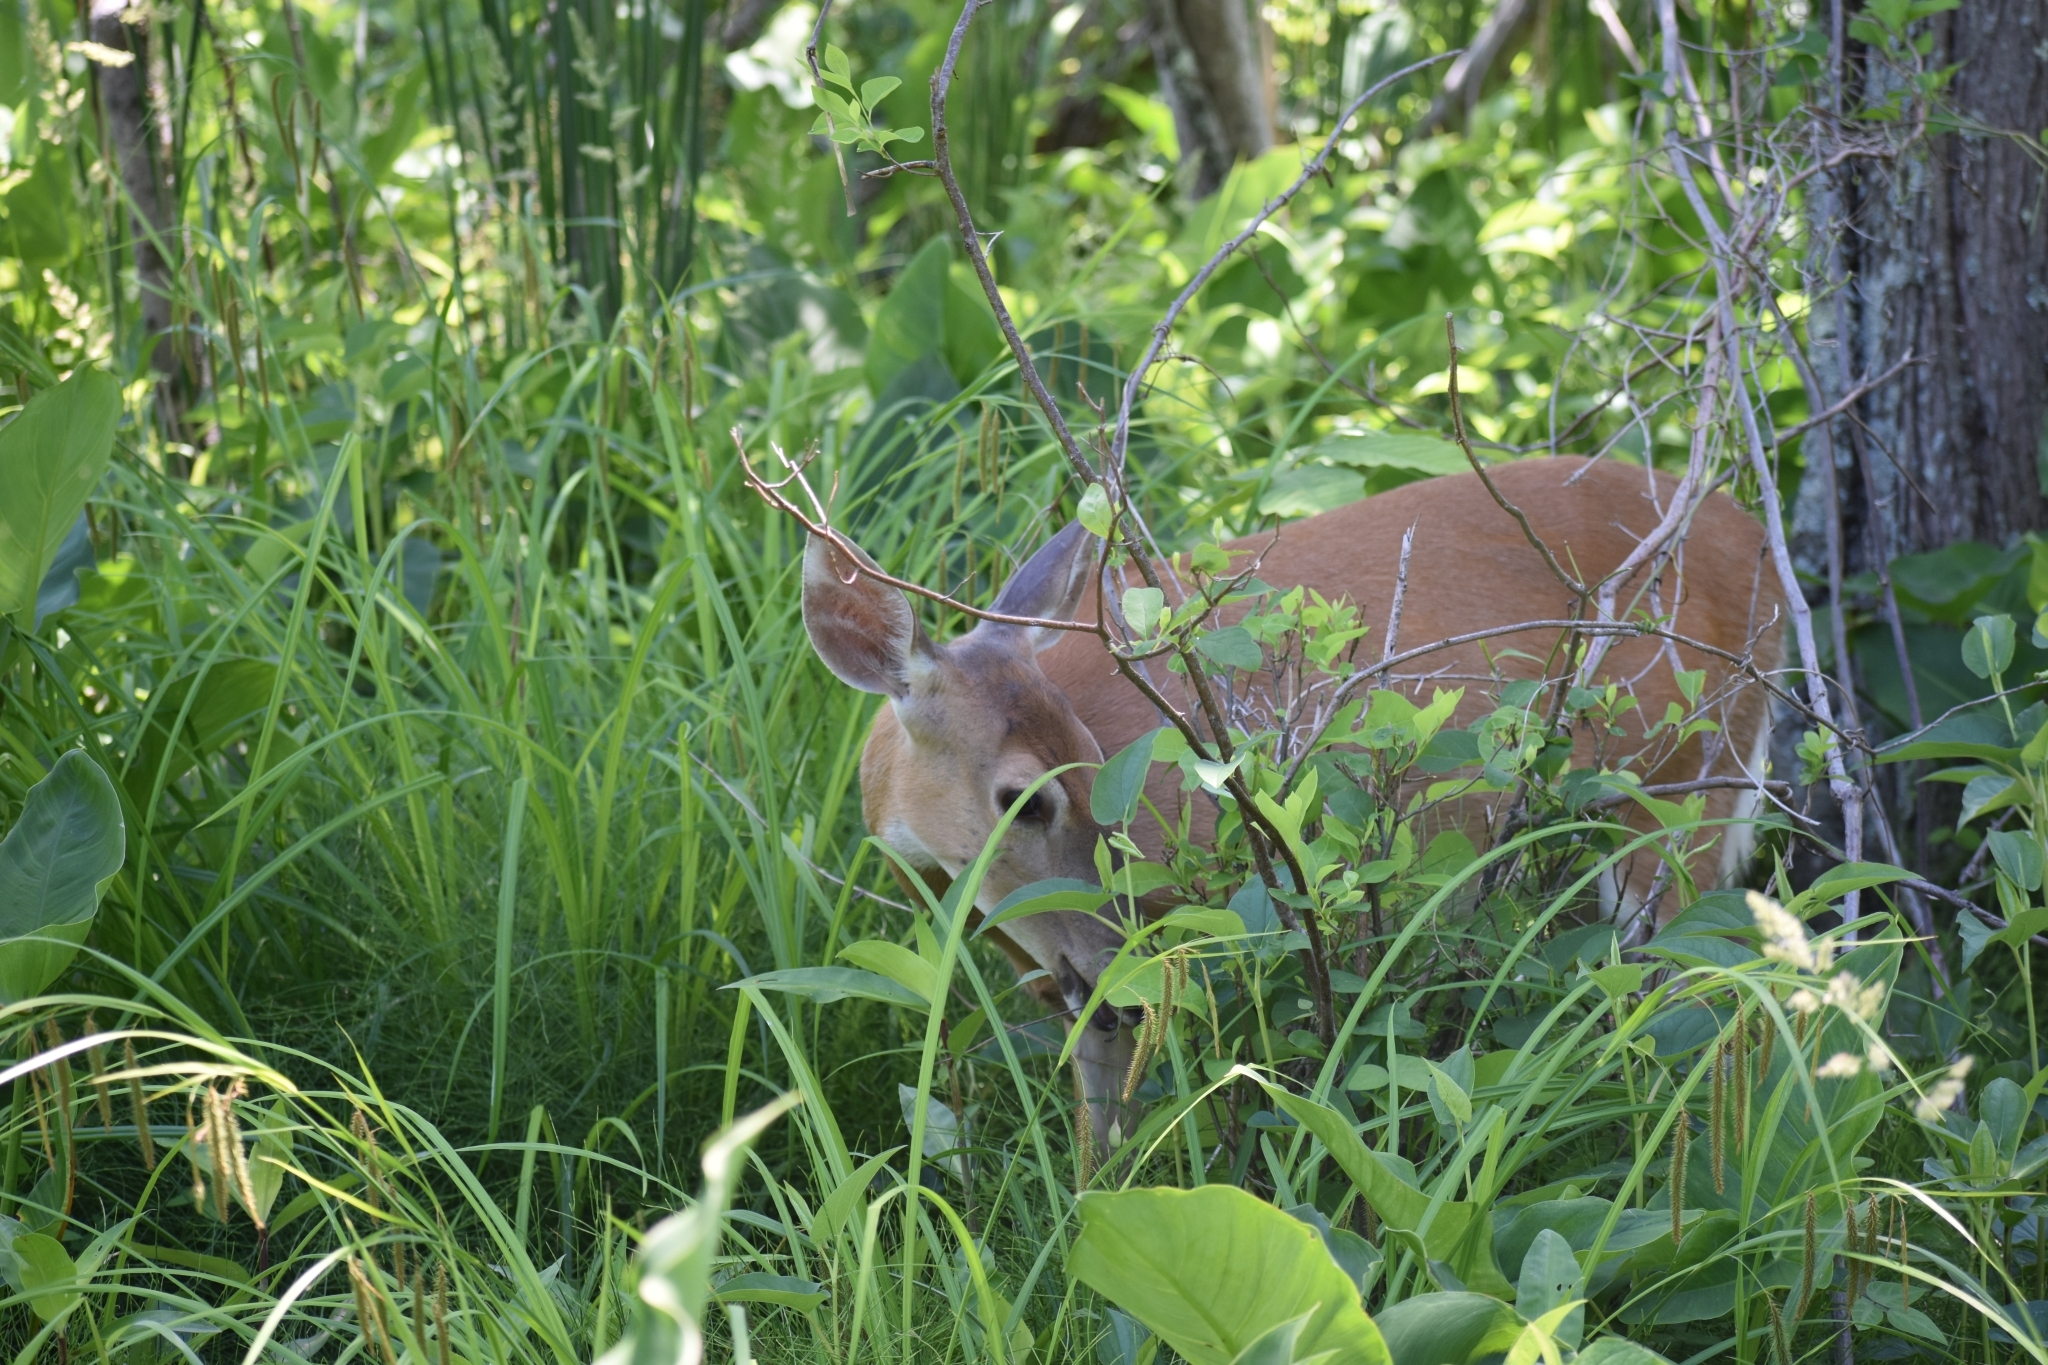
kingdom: Animalia
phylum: Chordata
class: Mammalia
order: Artiodactyla
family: Cervidae
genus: Odocoileus
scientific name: Odocoileus virginianus
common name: White-tailed deer
